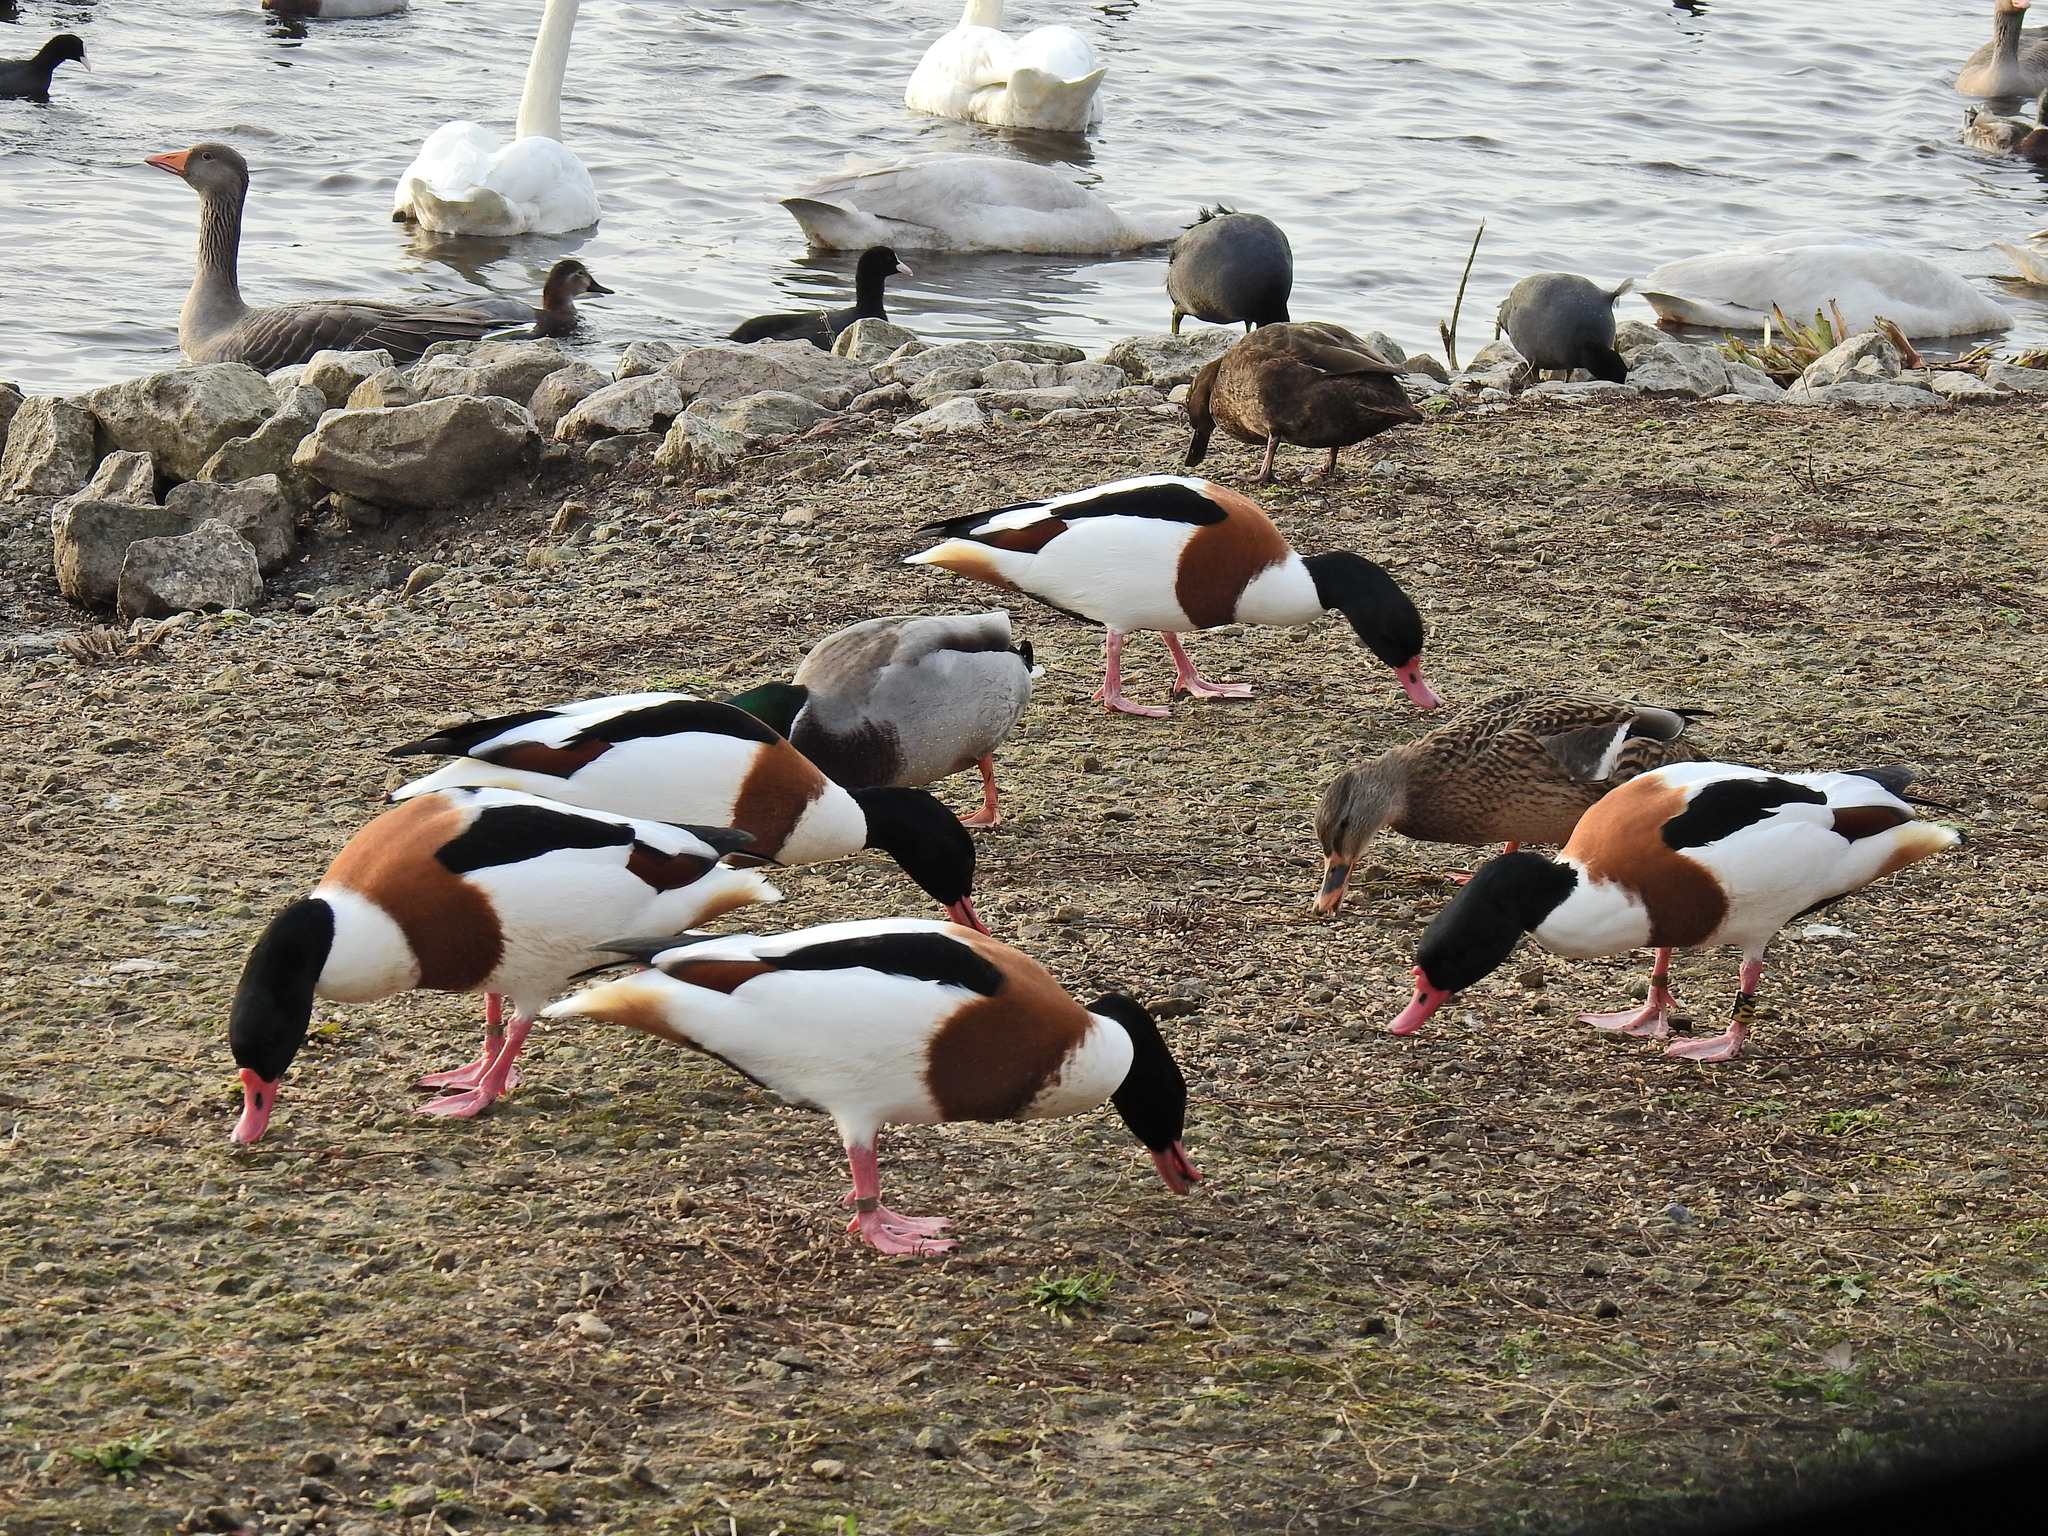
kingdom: Animalia
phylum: Chordata
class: Aves
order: Anseriformes
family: Anatidae
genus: Tadorna
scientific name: Tadorna tadorna
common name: Common shelduck
